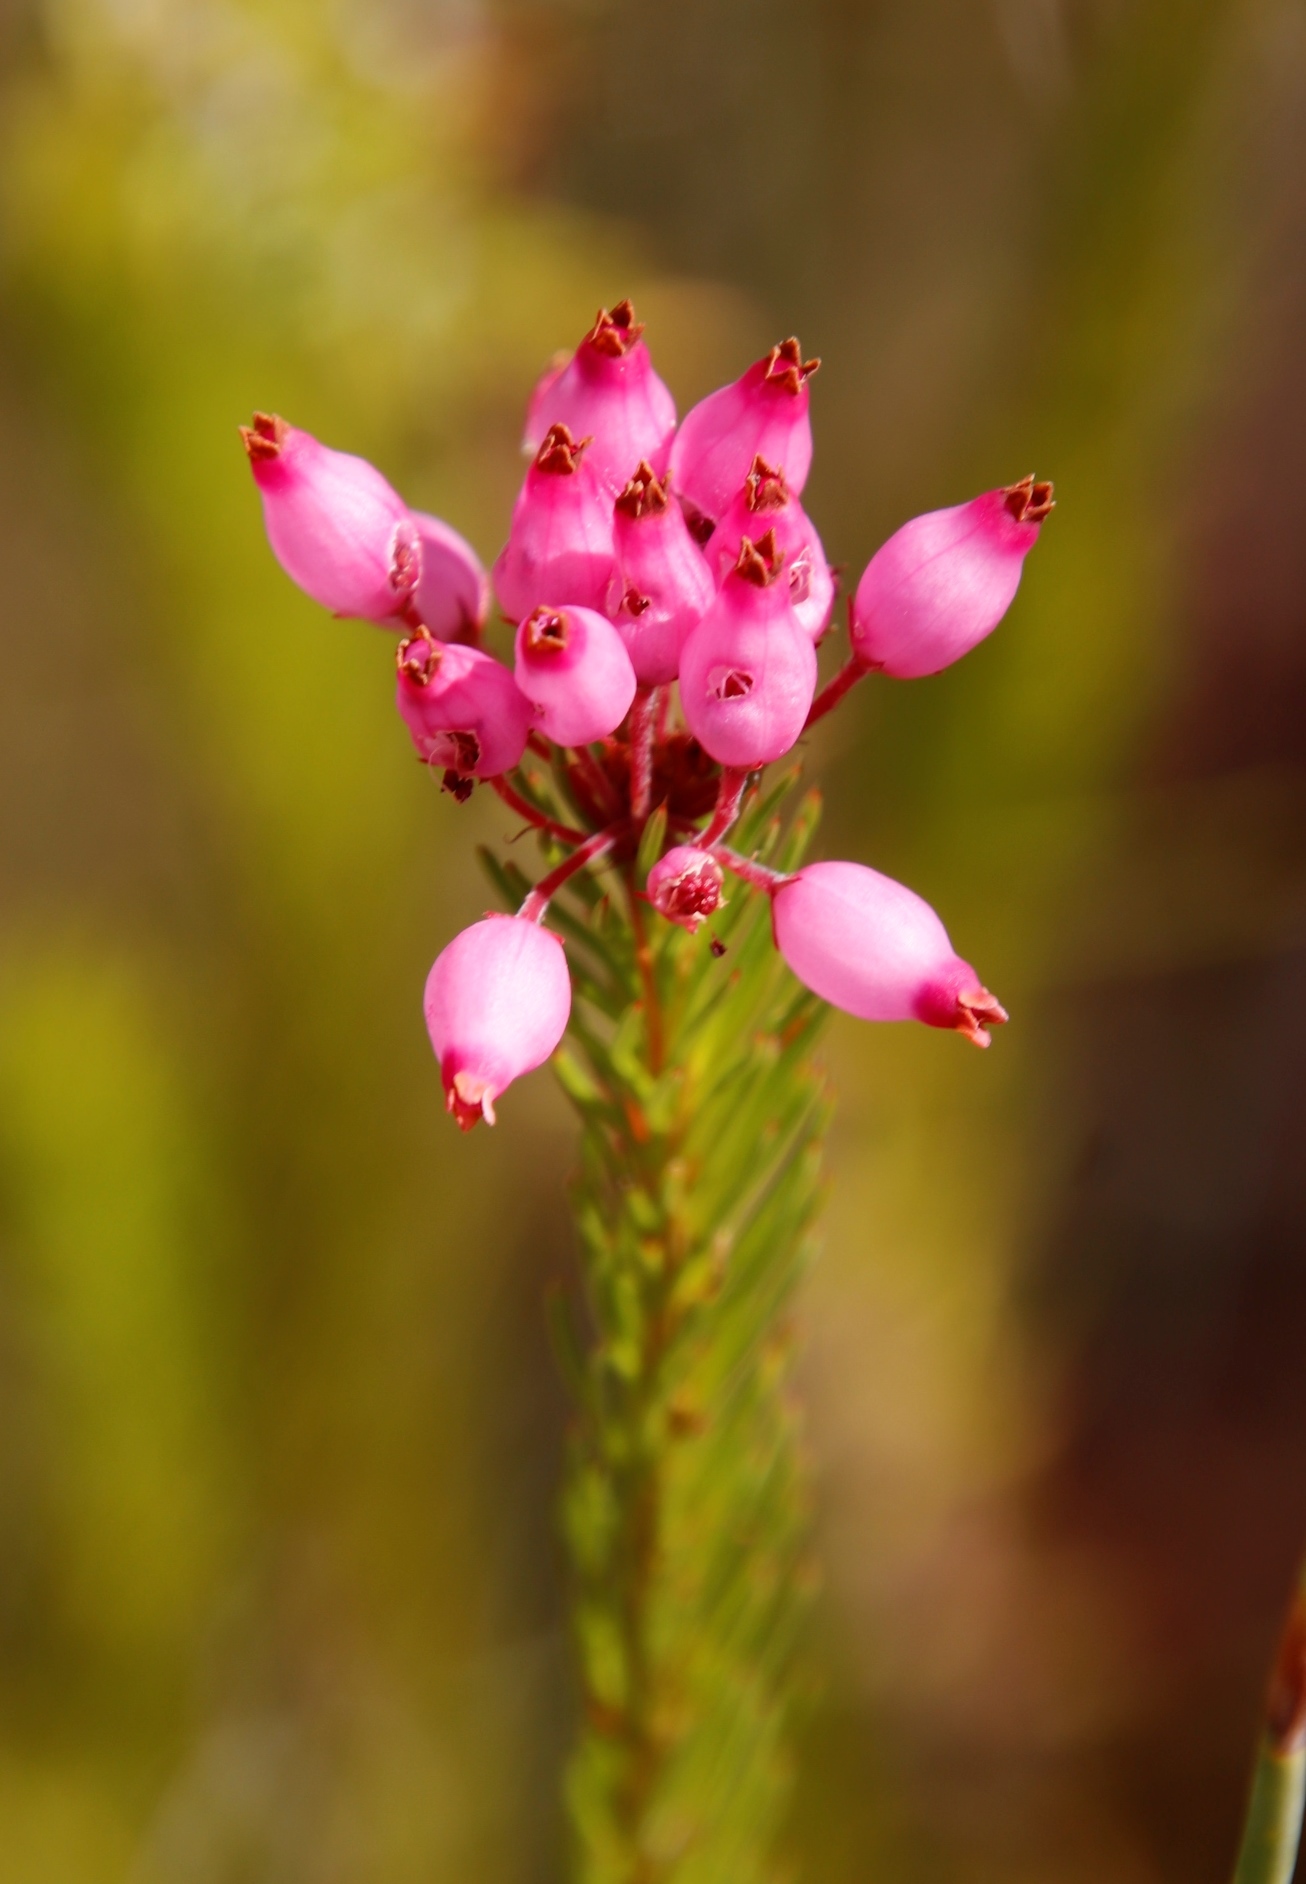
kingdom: Plantae
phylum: Tracheophyta
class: Magnoliopsida
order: Ericales
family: Ericaceae
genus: Erica
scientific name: Erica inflata
